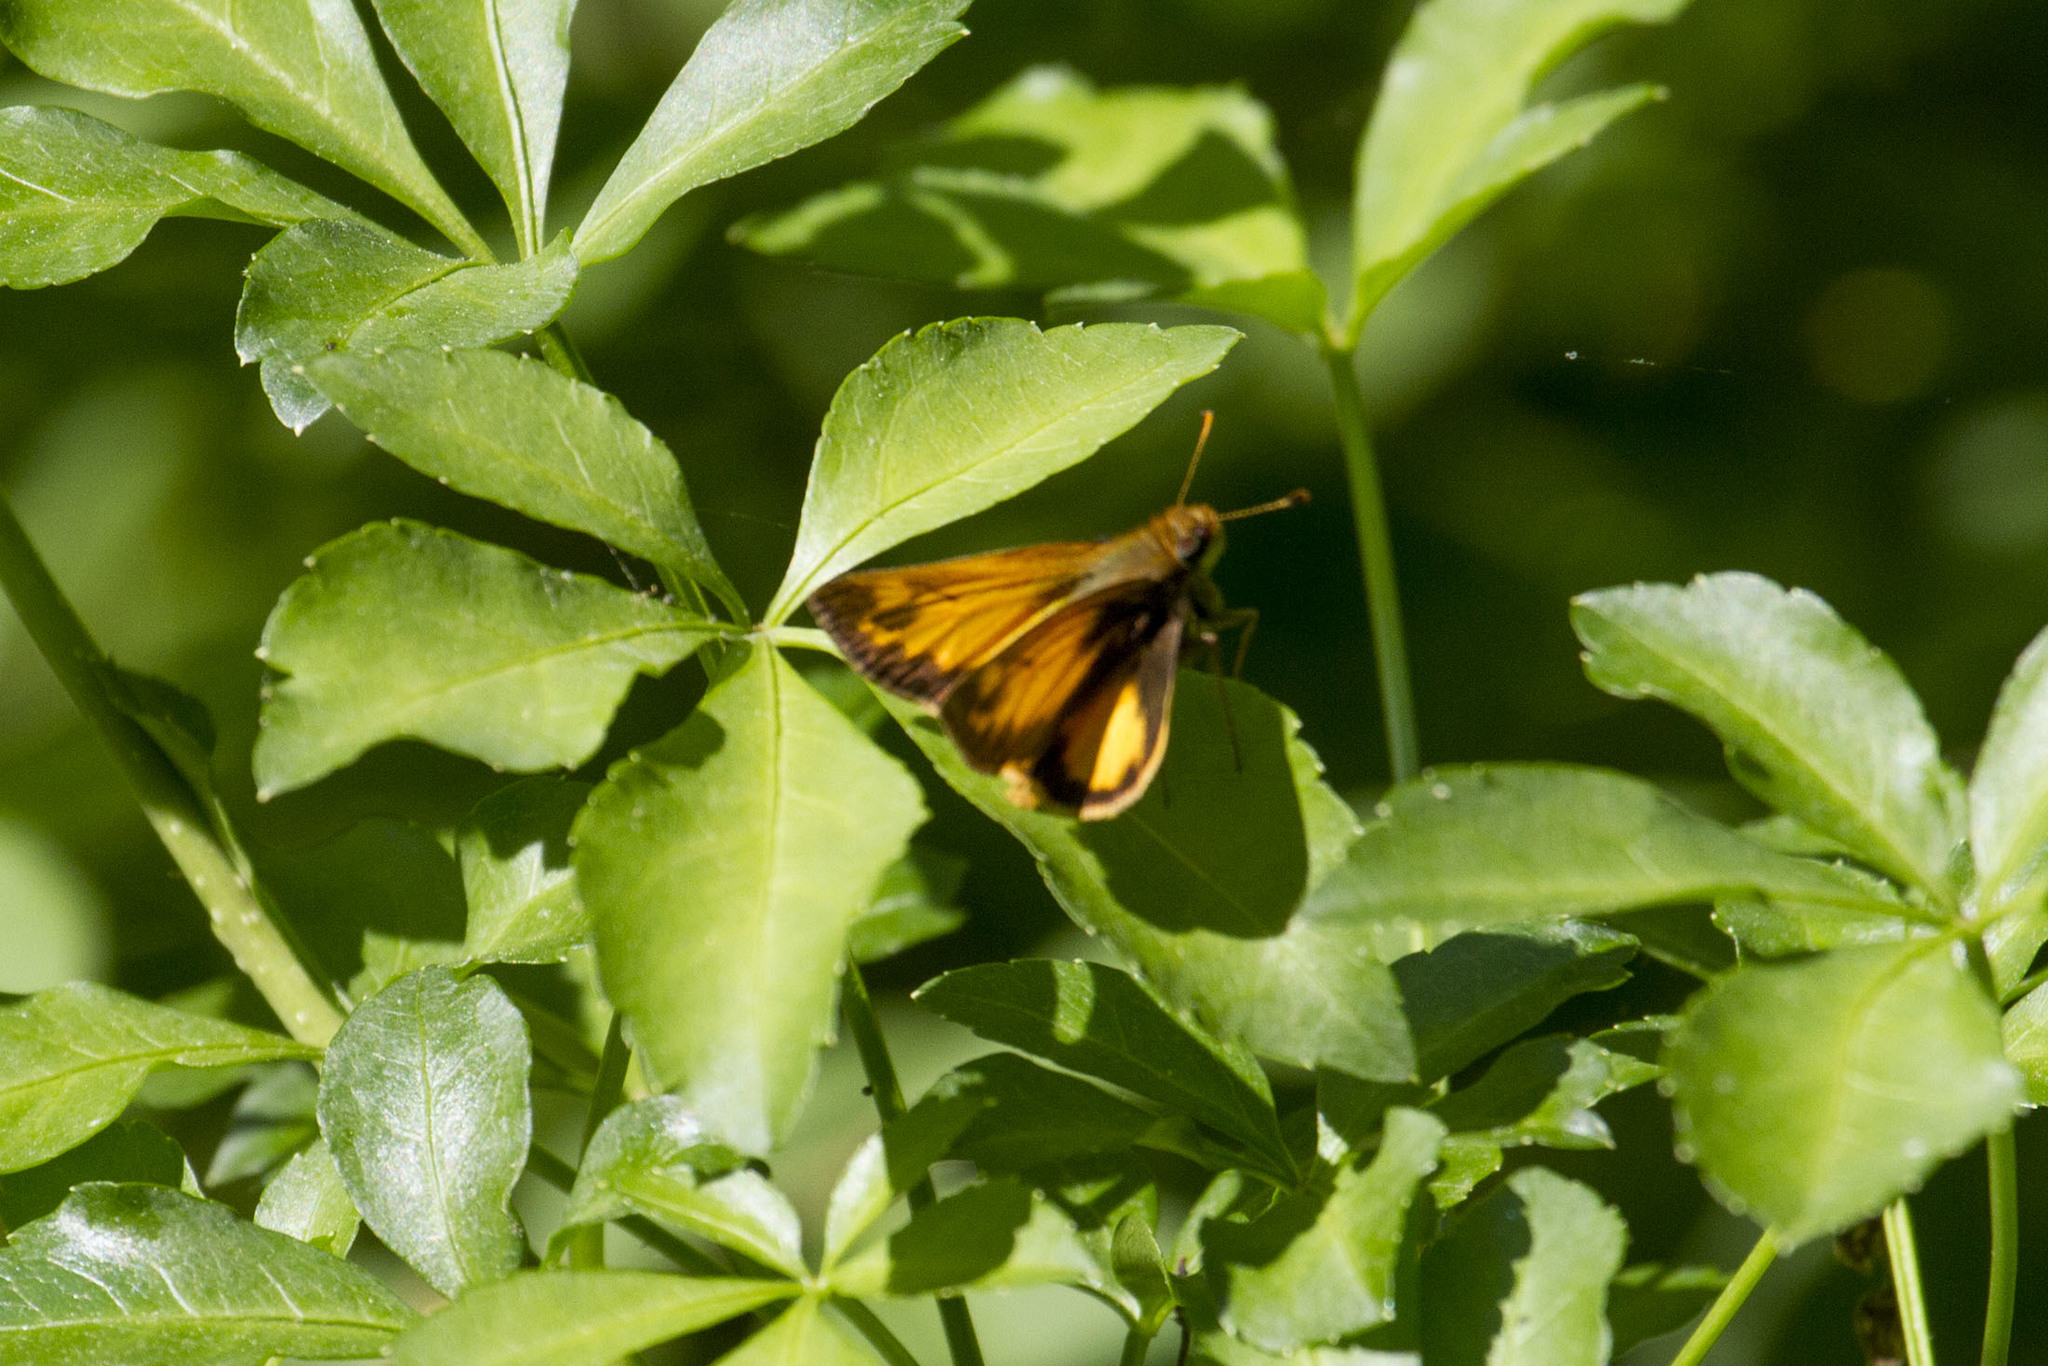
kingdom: Animalia
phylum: Arthropoda
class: Insecta
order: Lepidoptera
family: Hesperiidae
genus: Lon
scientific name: Lon zabulon
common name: Zabulon skipper
